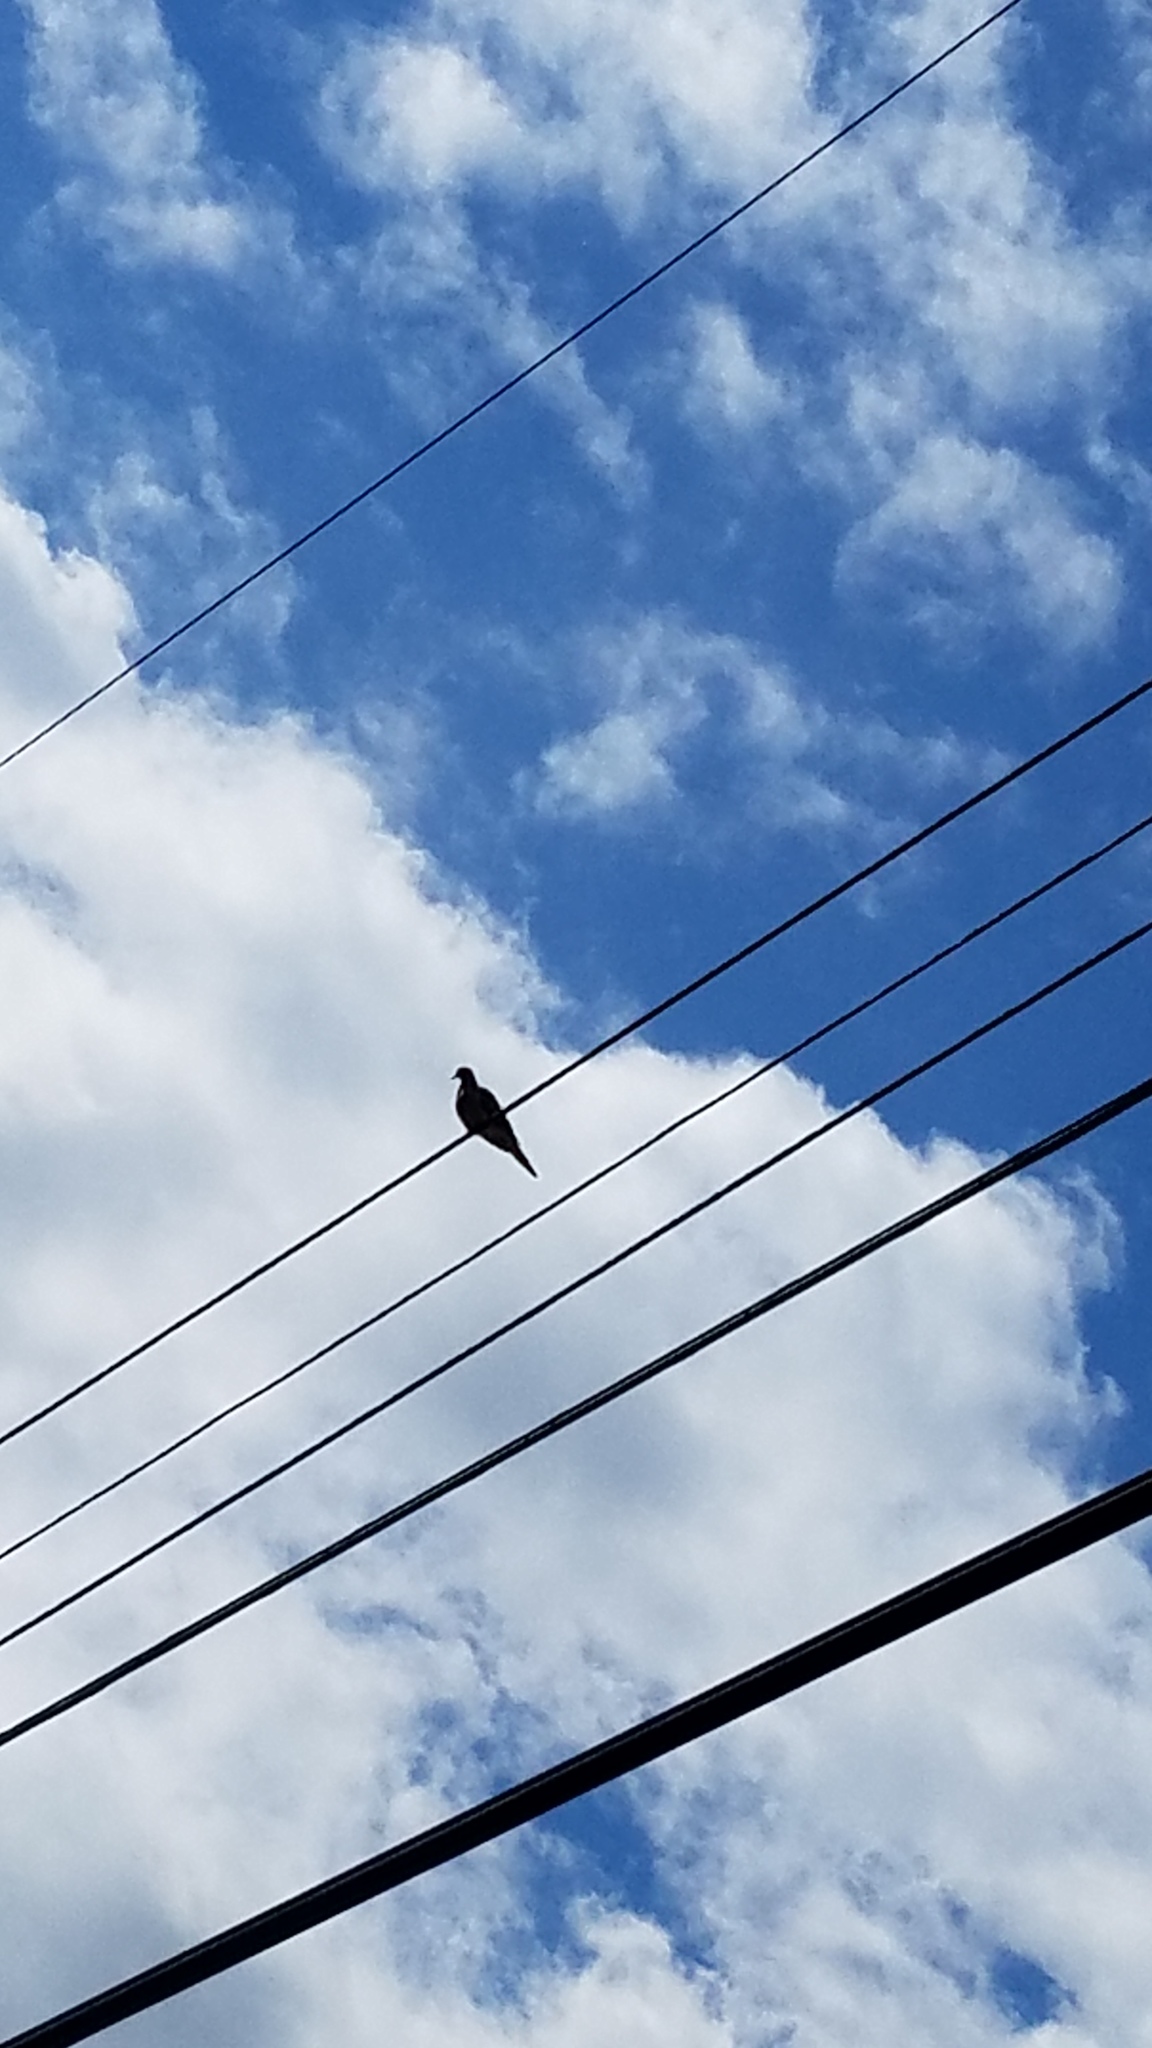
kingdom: Animalia
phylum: Chordata
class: Aves
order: Columbiformes
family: Columbidae
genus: Zenaida
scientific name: Zenaida macroura
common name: Mourning dove
